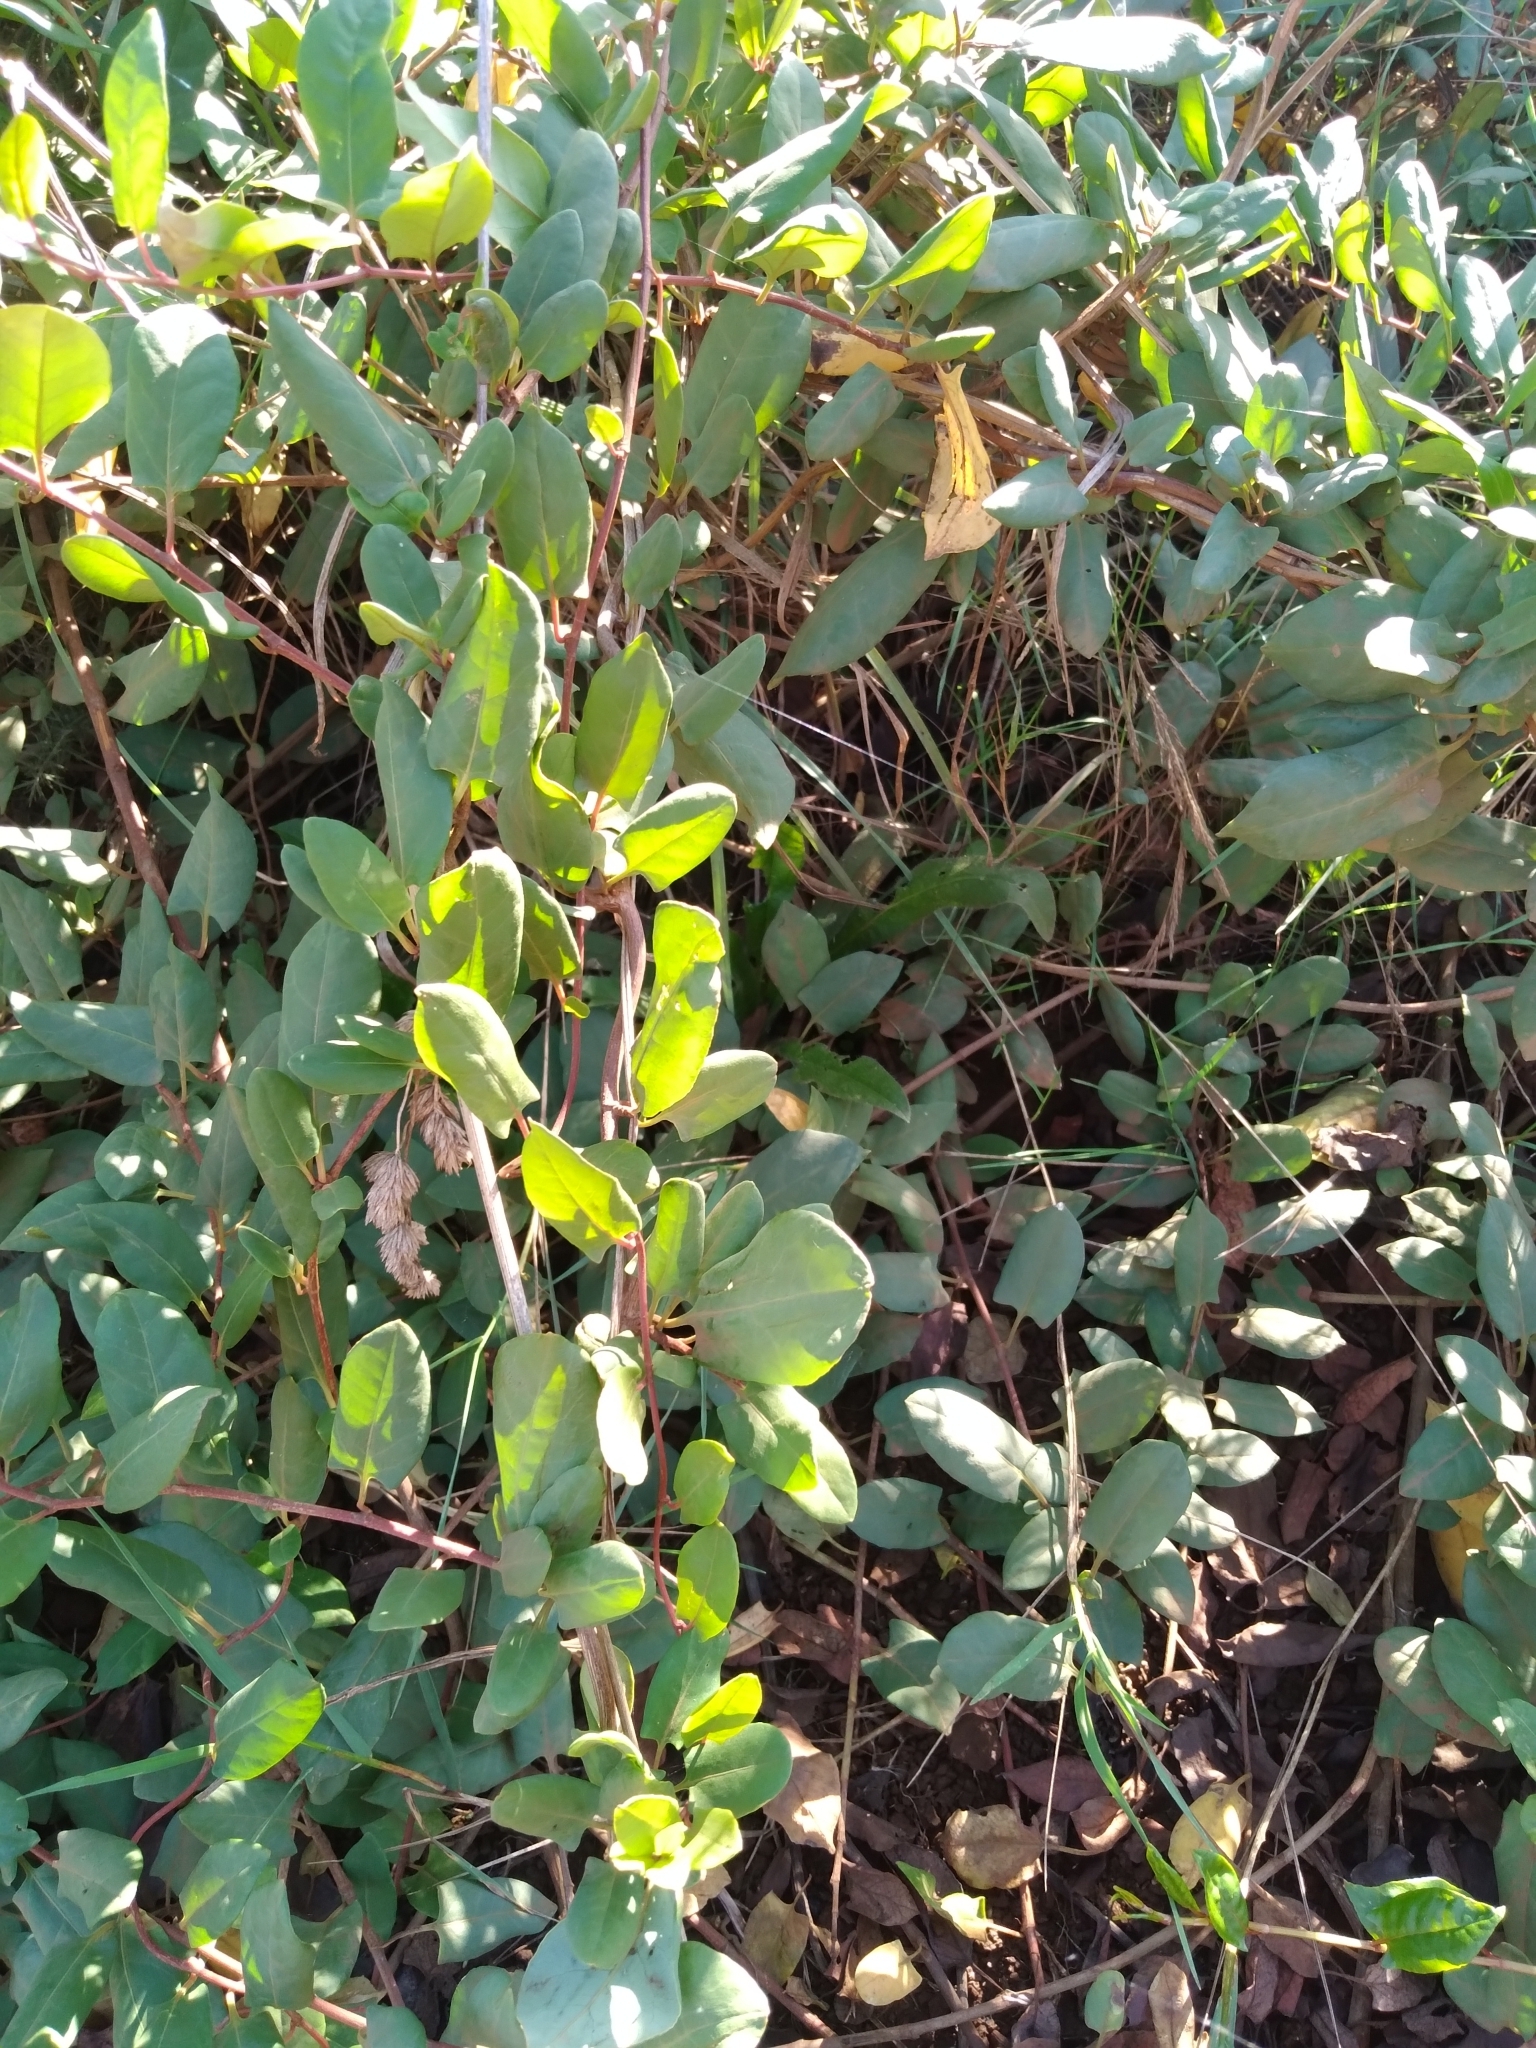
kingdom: Plantae
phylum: Tracheophyta
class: Magnoliopsida
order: Caryophyllales
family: Polygonaceae
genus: Muehlenbeckia
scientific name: Muehlenbeckia hastulata
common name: Wirevine
